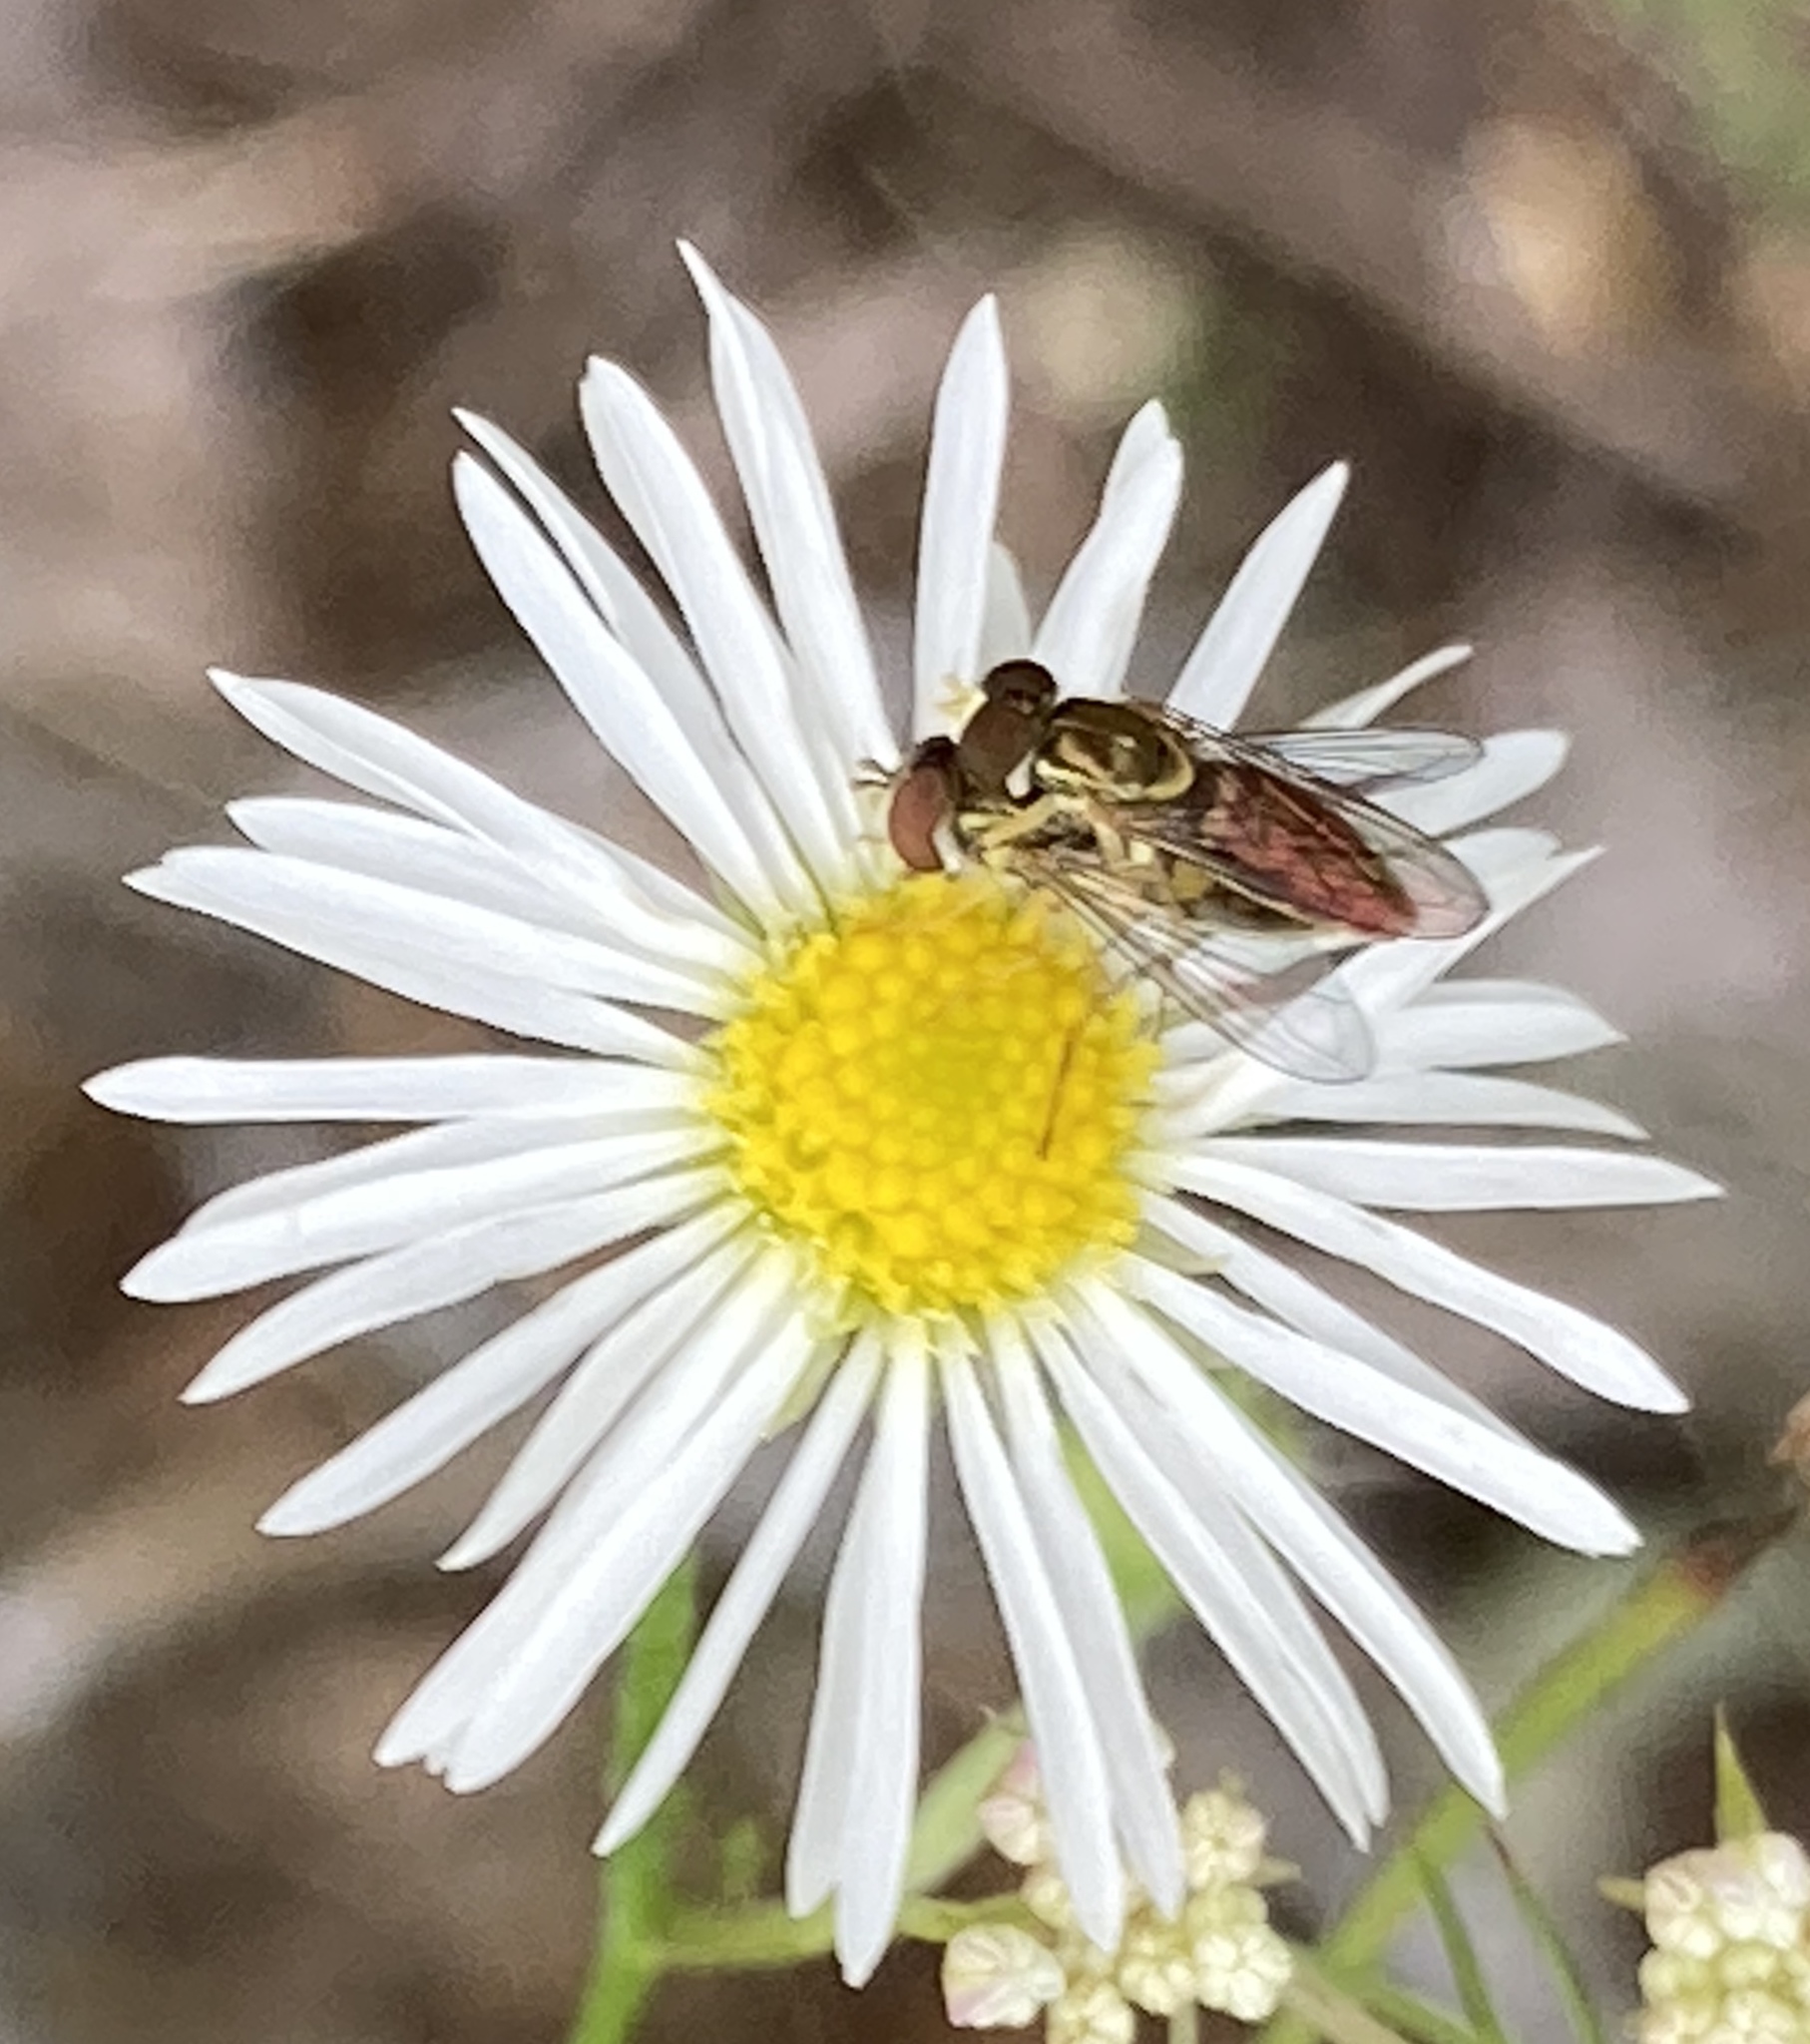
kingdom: Animalia
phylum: Arthropoda
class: Insecta
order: Diptera
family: Syrphidae
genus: Toxomerus
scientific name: Toxomerus marginatus
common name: Syrphid fly
